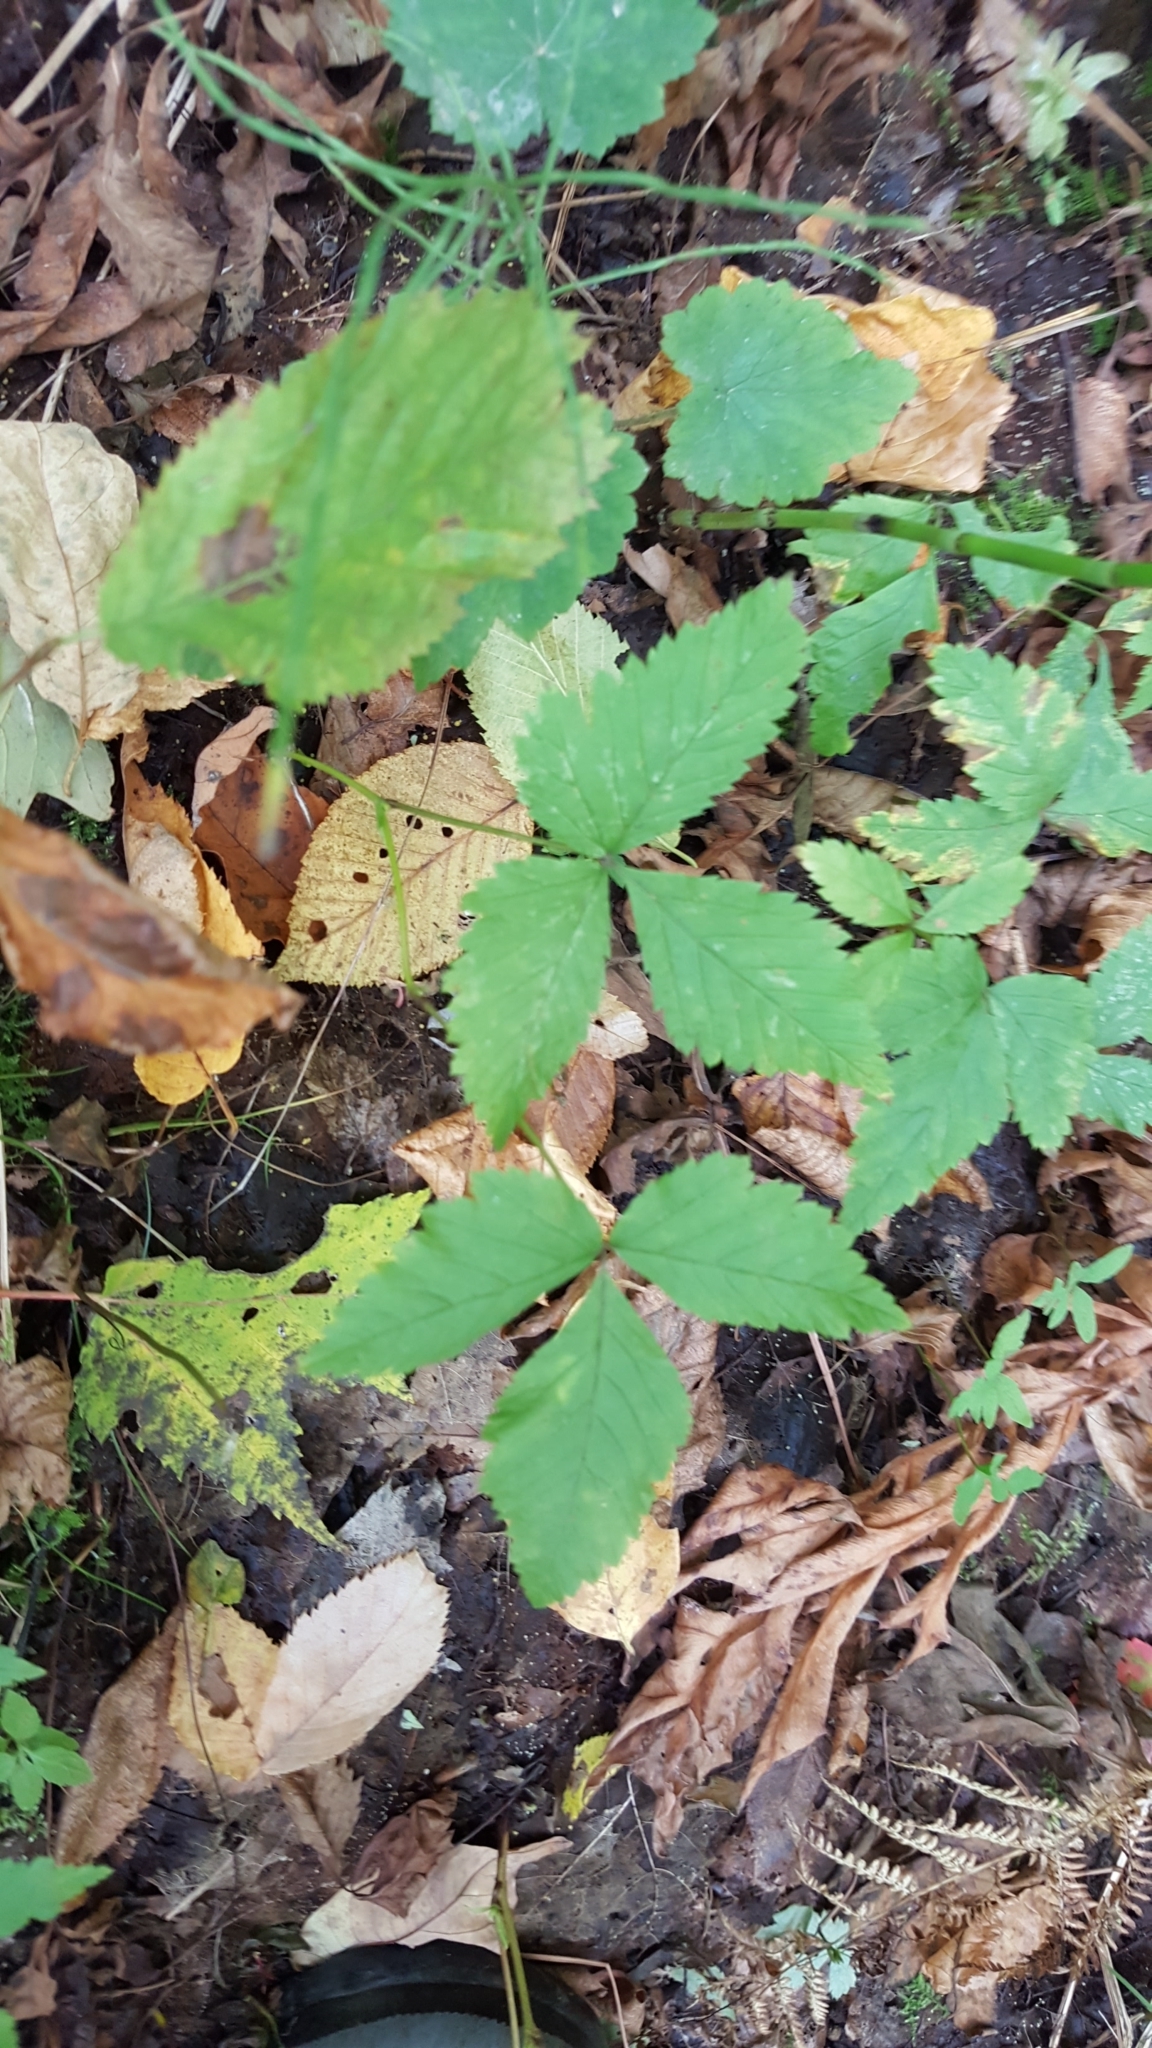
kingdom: Plantae
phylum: Tracheophyta
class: Magnoliopsida
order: Rosales
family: Rosaceae
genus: Rubus
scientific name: Rubus pubescens
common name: Dwarf raspberry
